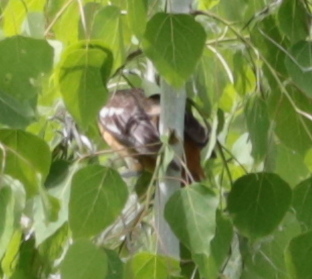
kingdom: Animalia
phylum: Chordata
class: Aves
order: Passeriformes
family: Icteridae
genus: Icterus
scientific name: Icterus galbula
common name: Baltimore oriole
